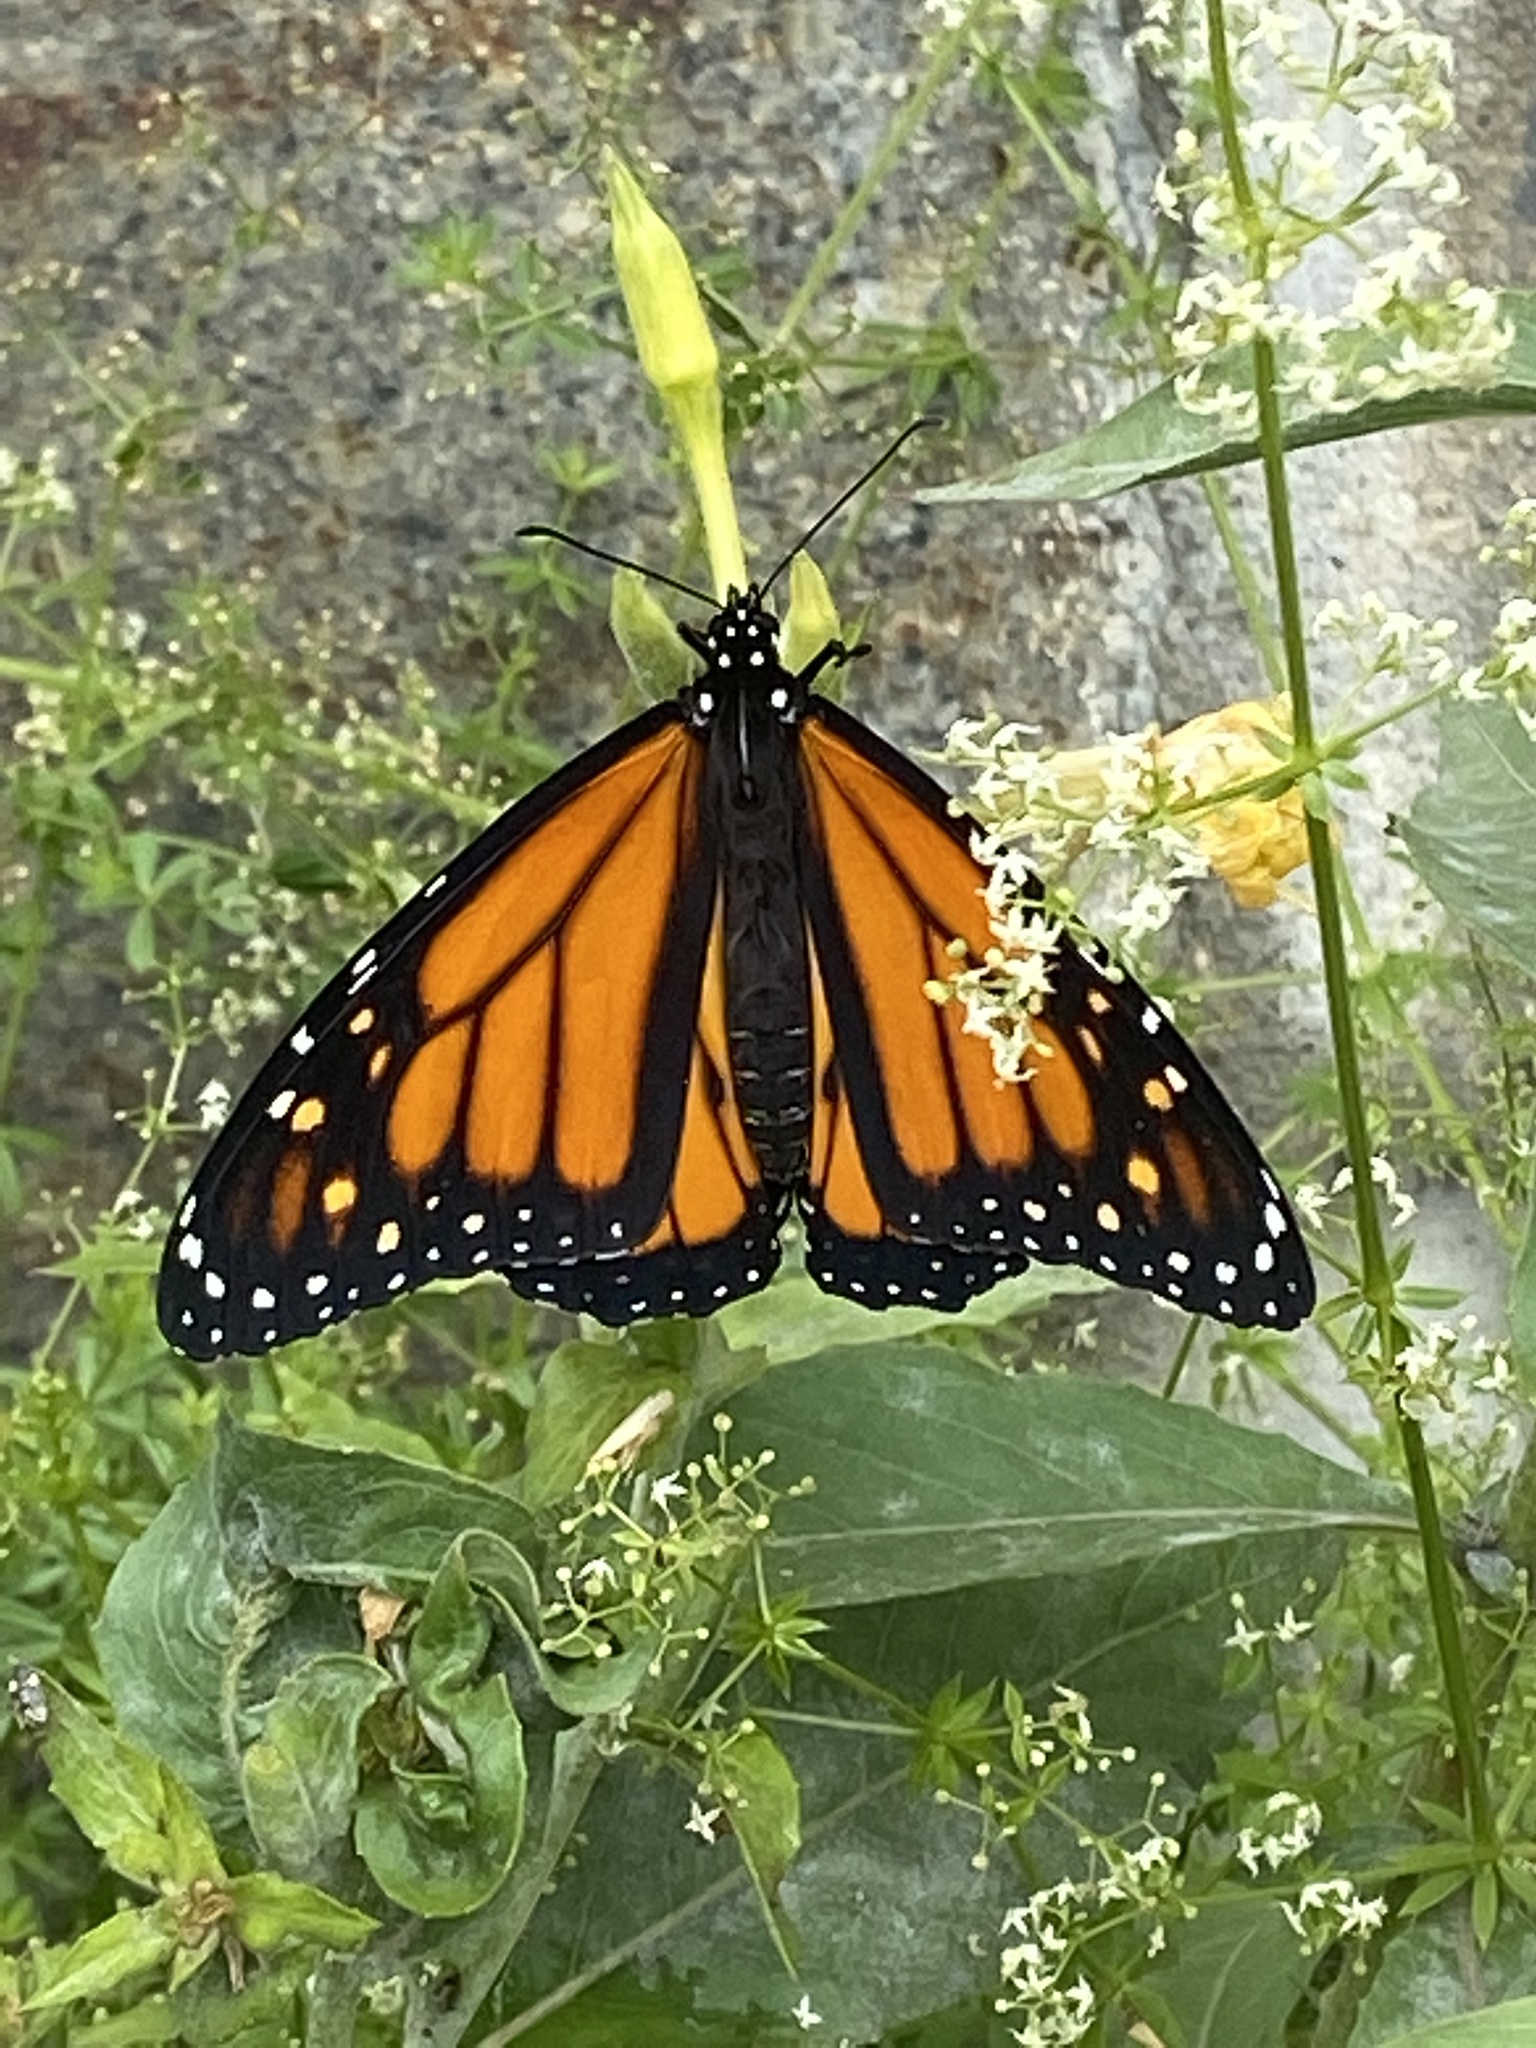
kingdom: Animalia
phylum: Arthropoda
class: Insecta
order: Lepidoptera
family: Nymphalidae
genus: Danaus
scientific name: Danaus plexippus
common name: Monarch
